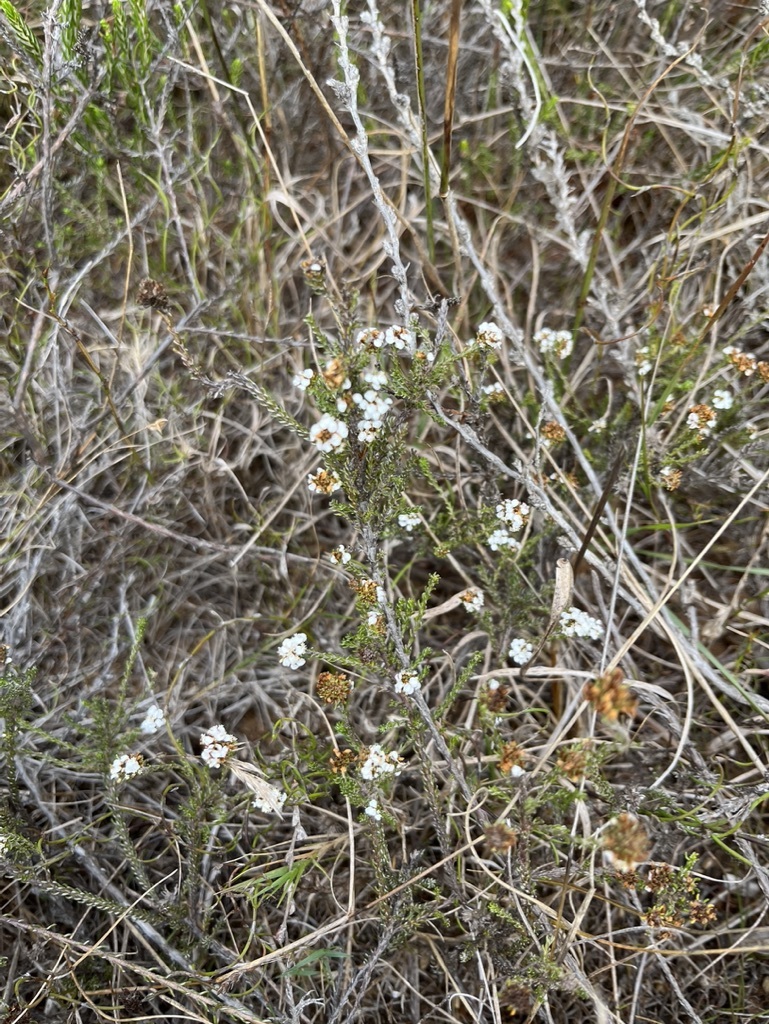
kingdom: Plantae
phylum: Tracheophyta
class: Magnoliopsida
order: Asterales
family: Asteraceae
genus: Disparago
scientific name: Disparago anomala
